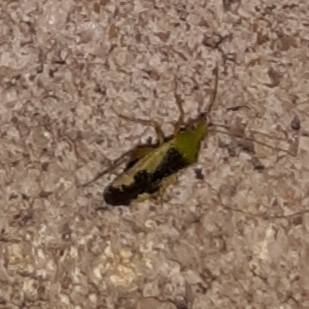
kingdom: Animalia
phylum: Arthropoda
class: Insecta
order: Hemiptera
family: Miridae
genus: Reuteroscopus
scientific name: Reuteroscopus ornatus
